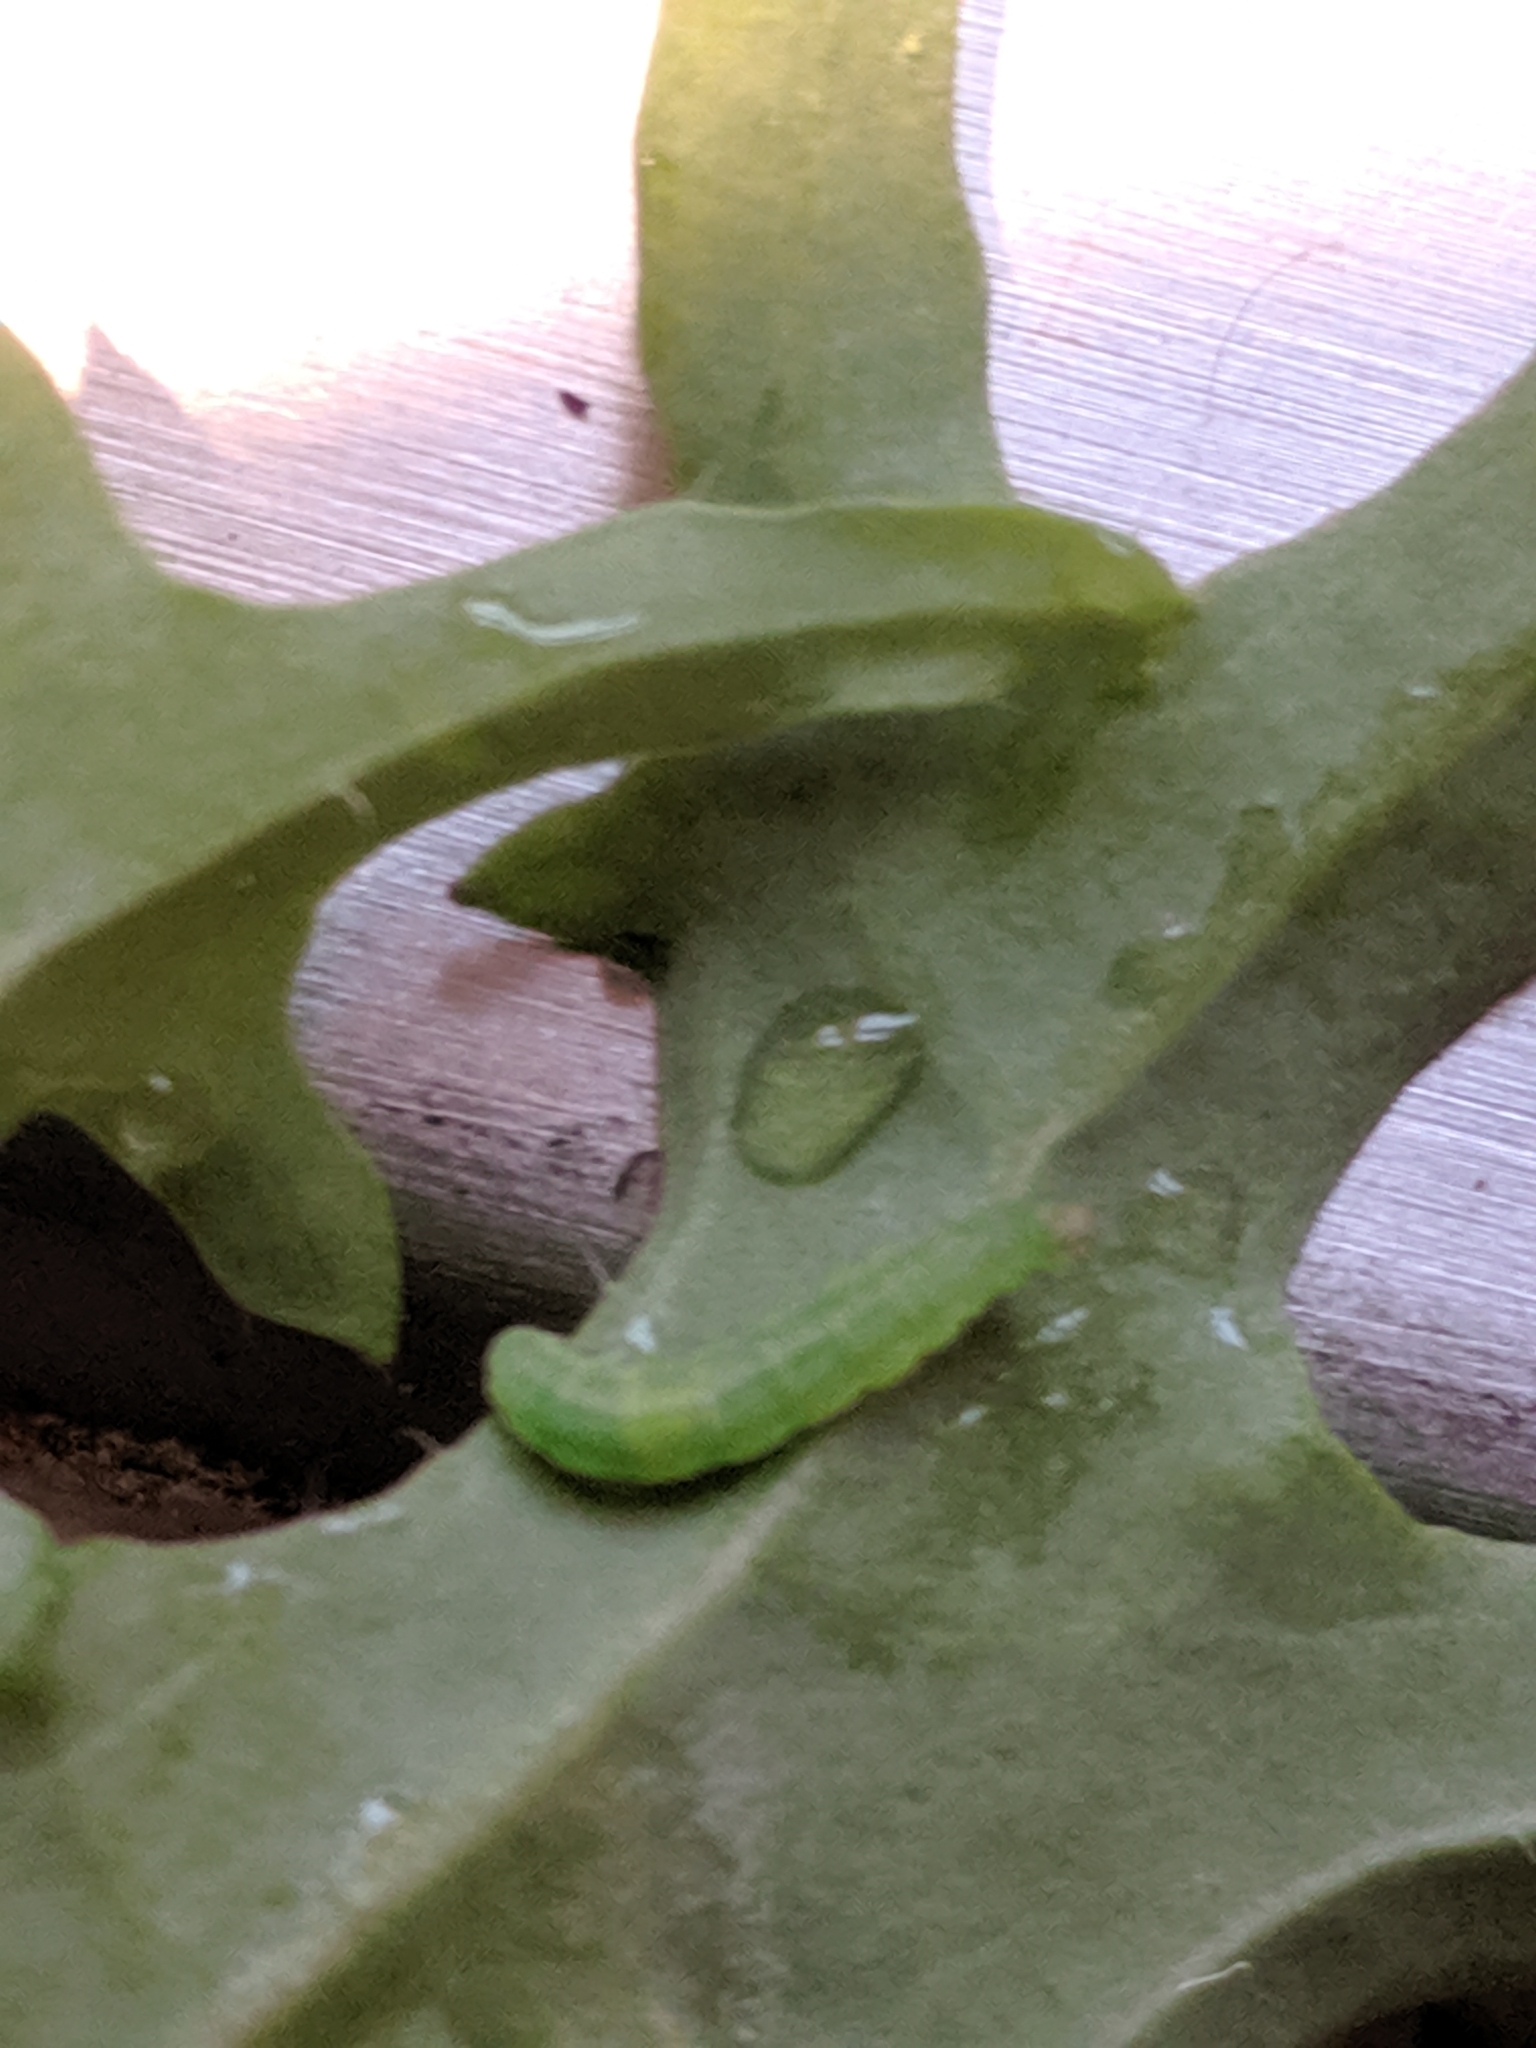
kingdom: Animalia
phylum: Arthropoda
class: Insecta
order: Lepidoptera
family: Plutellidae
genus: Plutella
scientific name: Plutella xylostella
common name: Diamond-back moth
